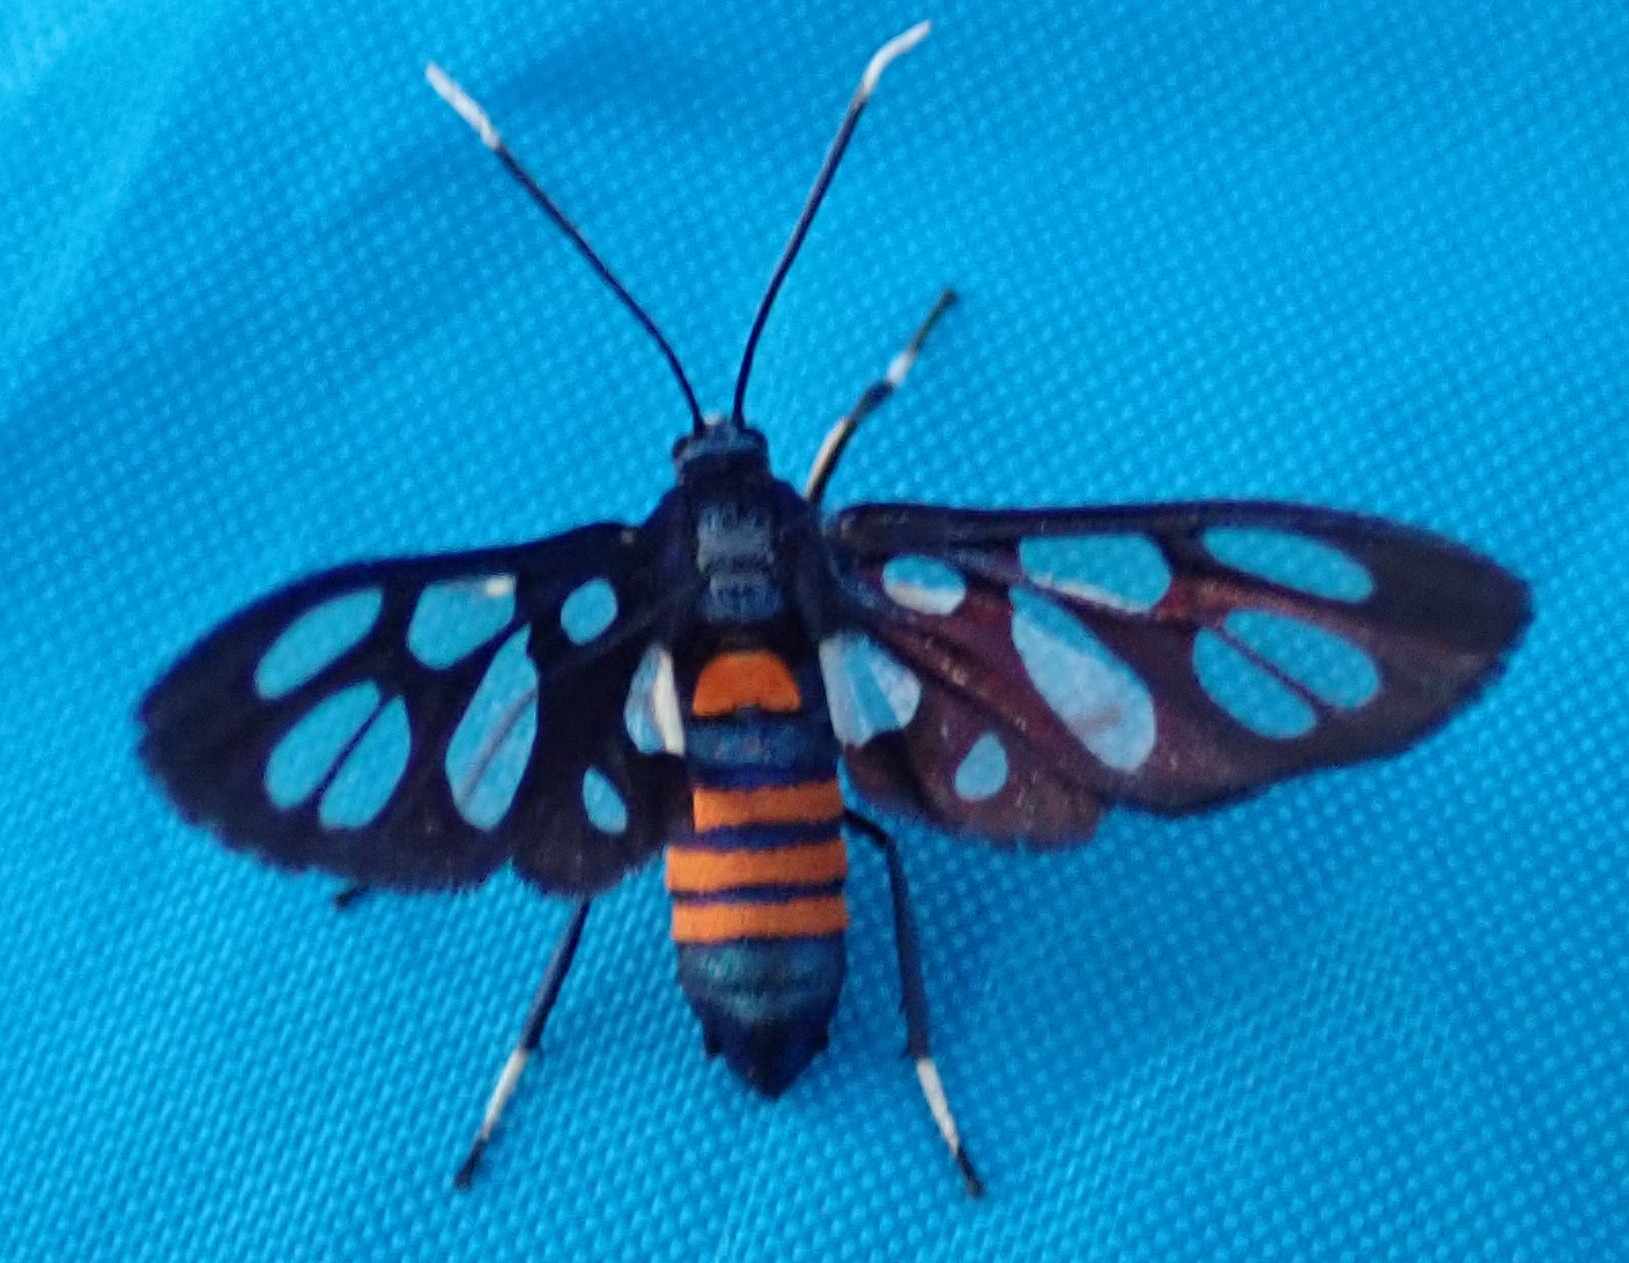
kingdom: Animalia
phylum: Arthropoda
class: Insecta
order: Lepidoptera
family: Erebidae
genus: Amata
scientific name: Amata cerbera
